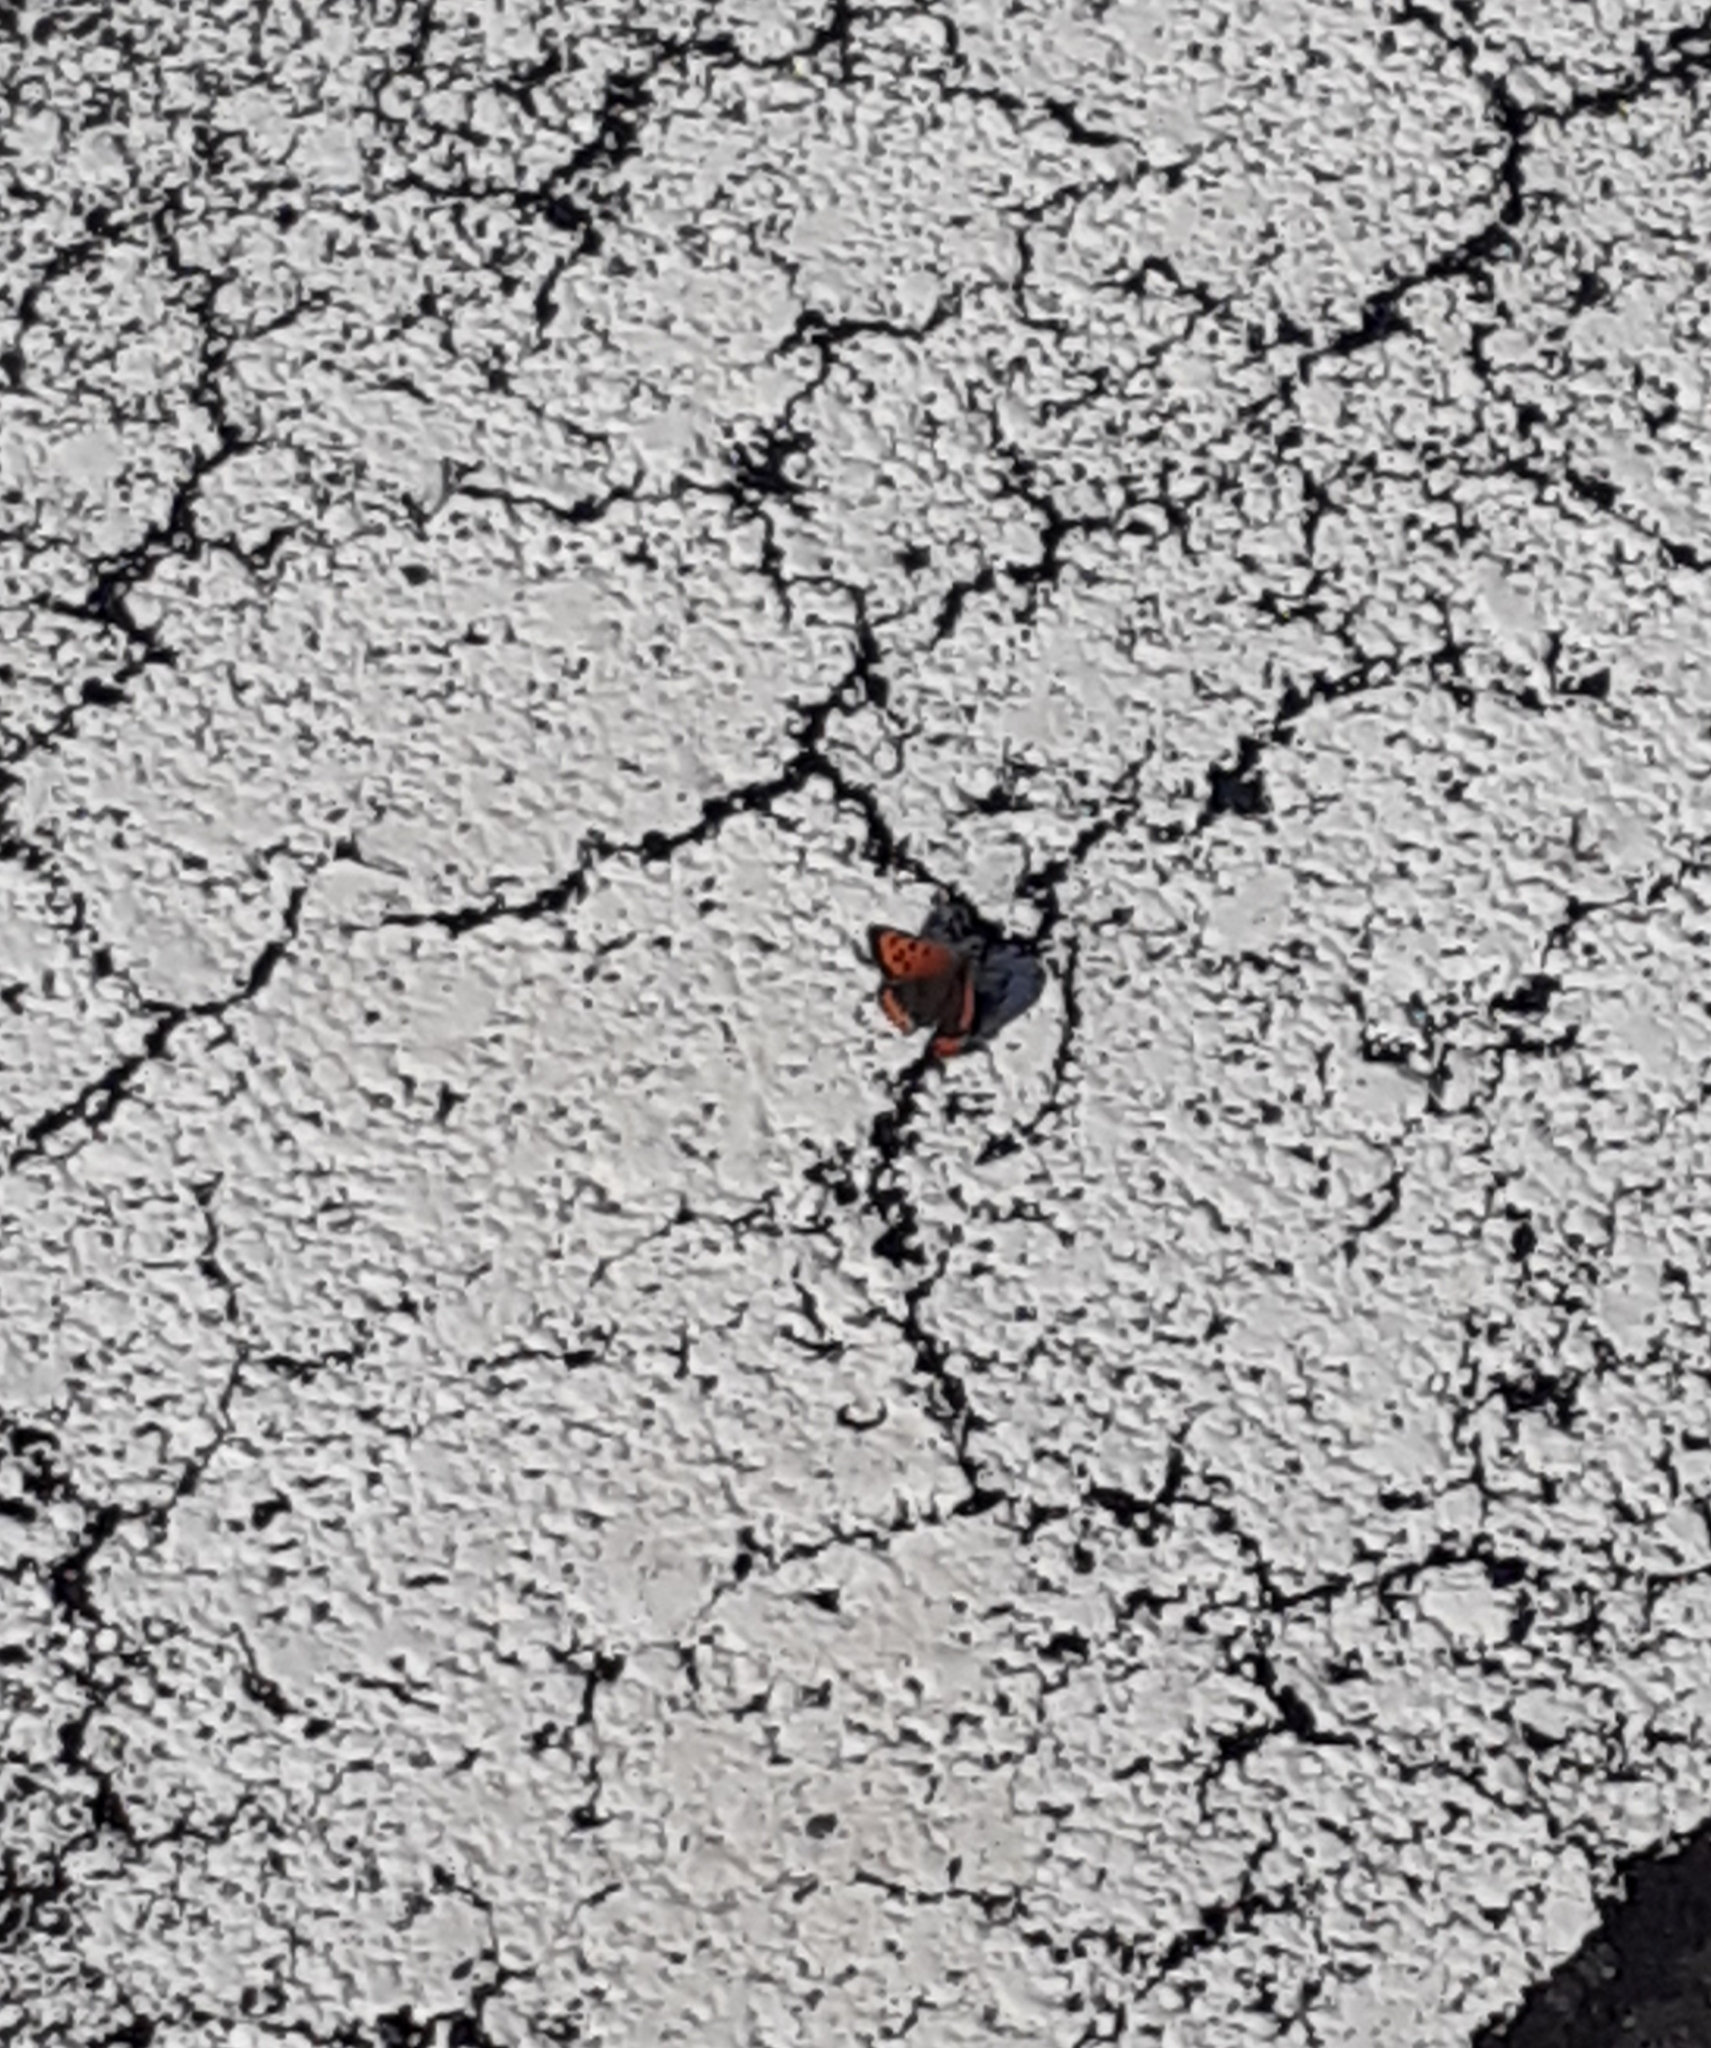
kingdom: Animalia
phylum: Arthropoda
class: Insecta
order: Lepidoptera
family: Lycaenidae
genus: Lycaena
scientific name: Lycaena phlaeas
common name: Small copper
